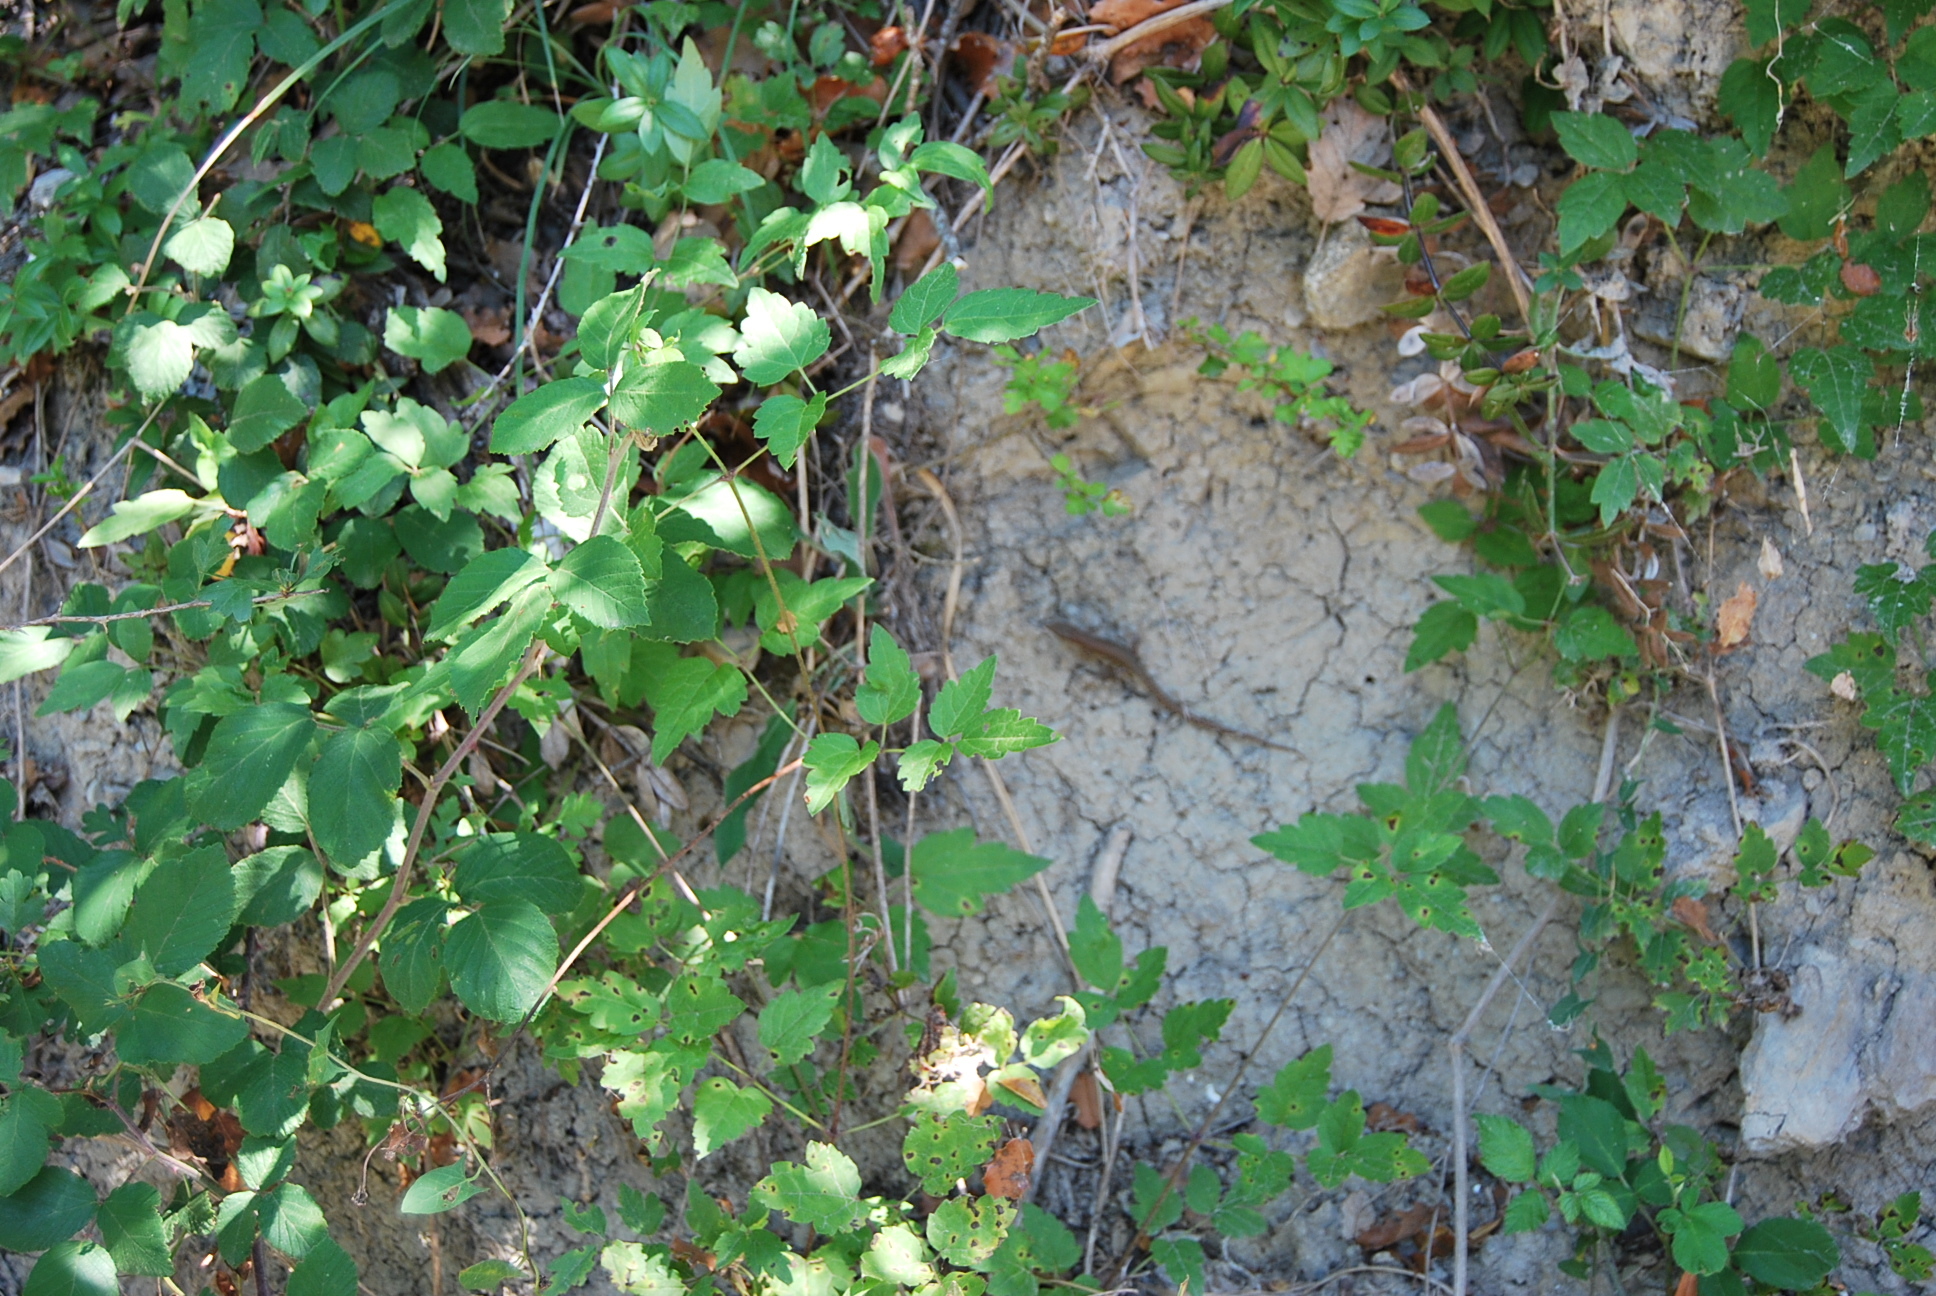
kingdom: Animalia
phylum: Chordata
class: Squamata
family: Lacertidae
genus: Podarcis
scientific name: Podarcis liolepis
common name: Catalonian wall lizard
